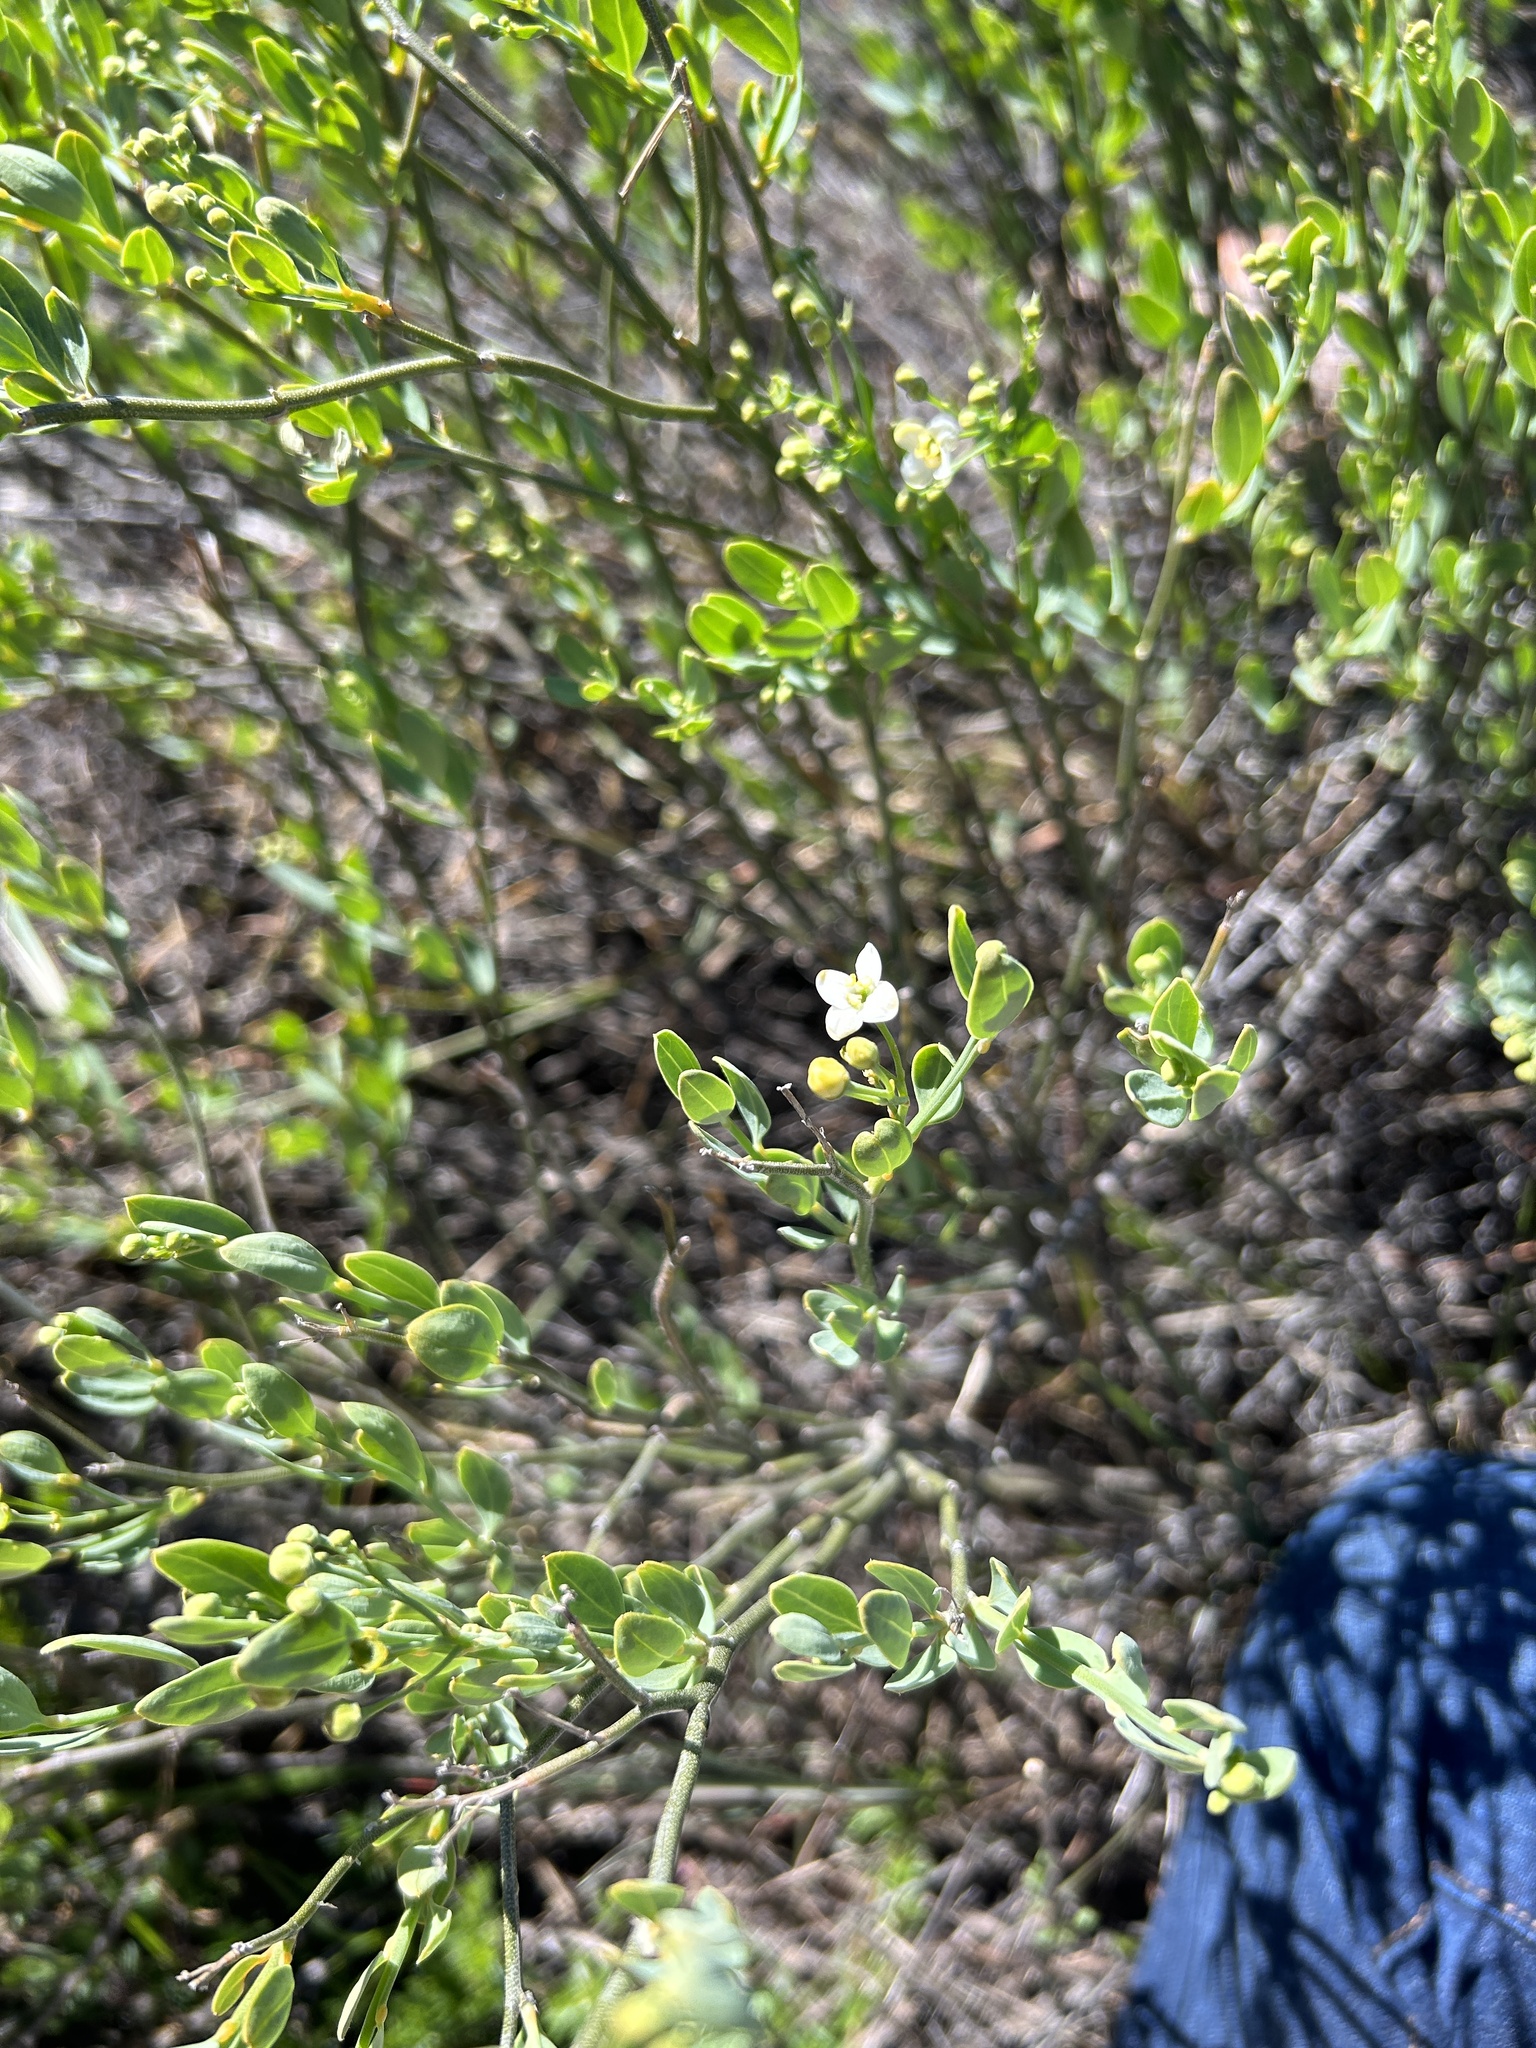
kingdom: Plantae
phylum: Tracheophyta
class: Magnoliopsida
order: Solanales
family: Montiniaceae
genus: Montinia
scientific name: Montinia caryophyllacea
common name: Wild clove-bush
